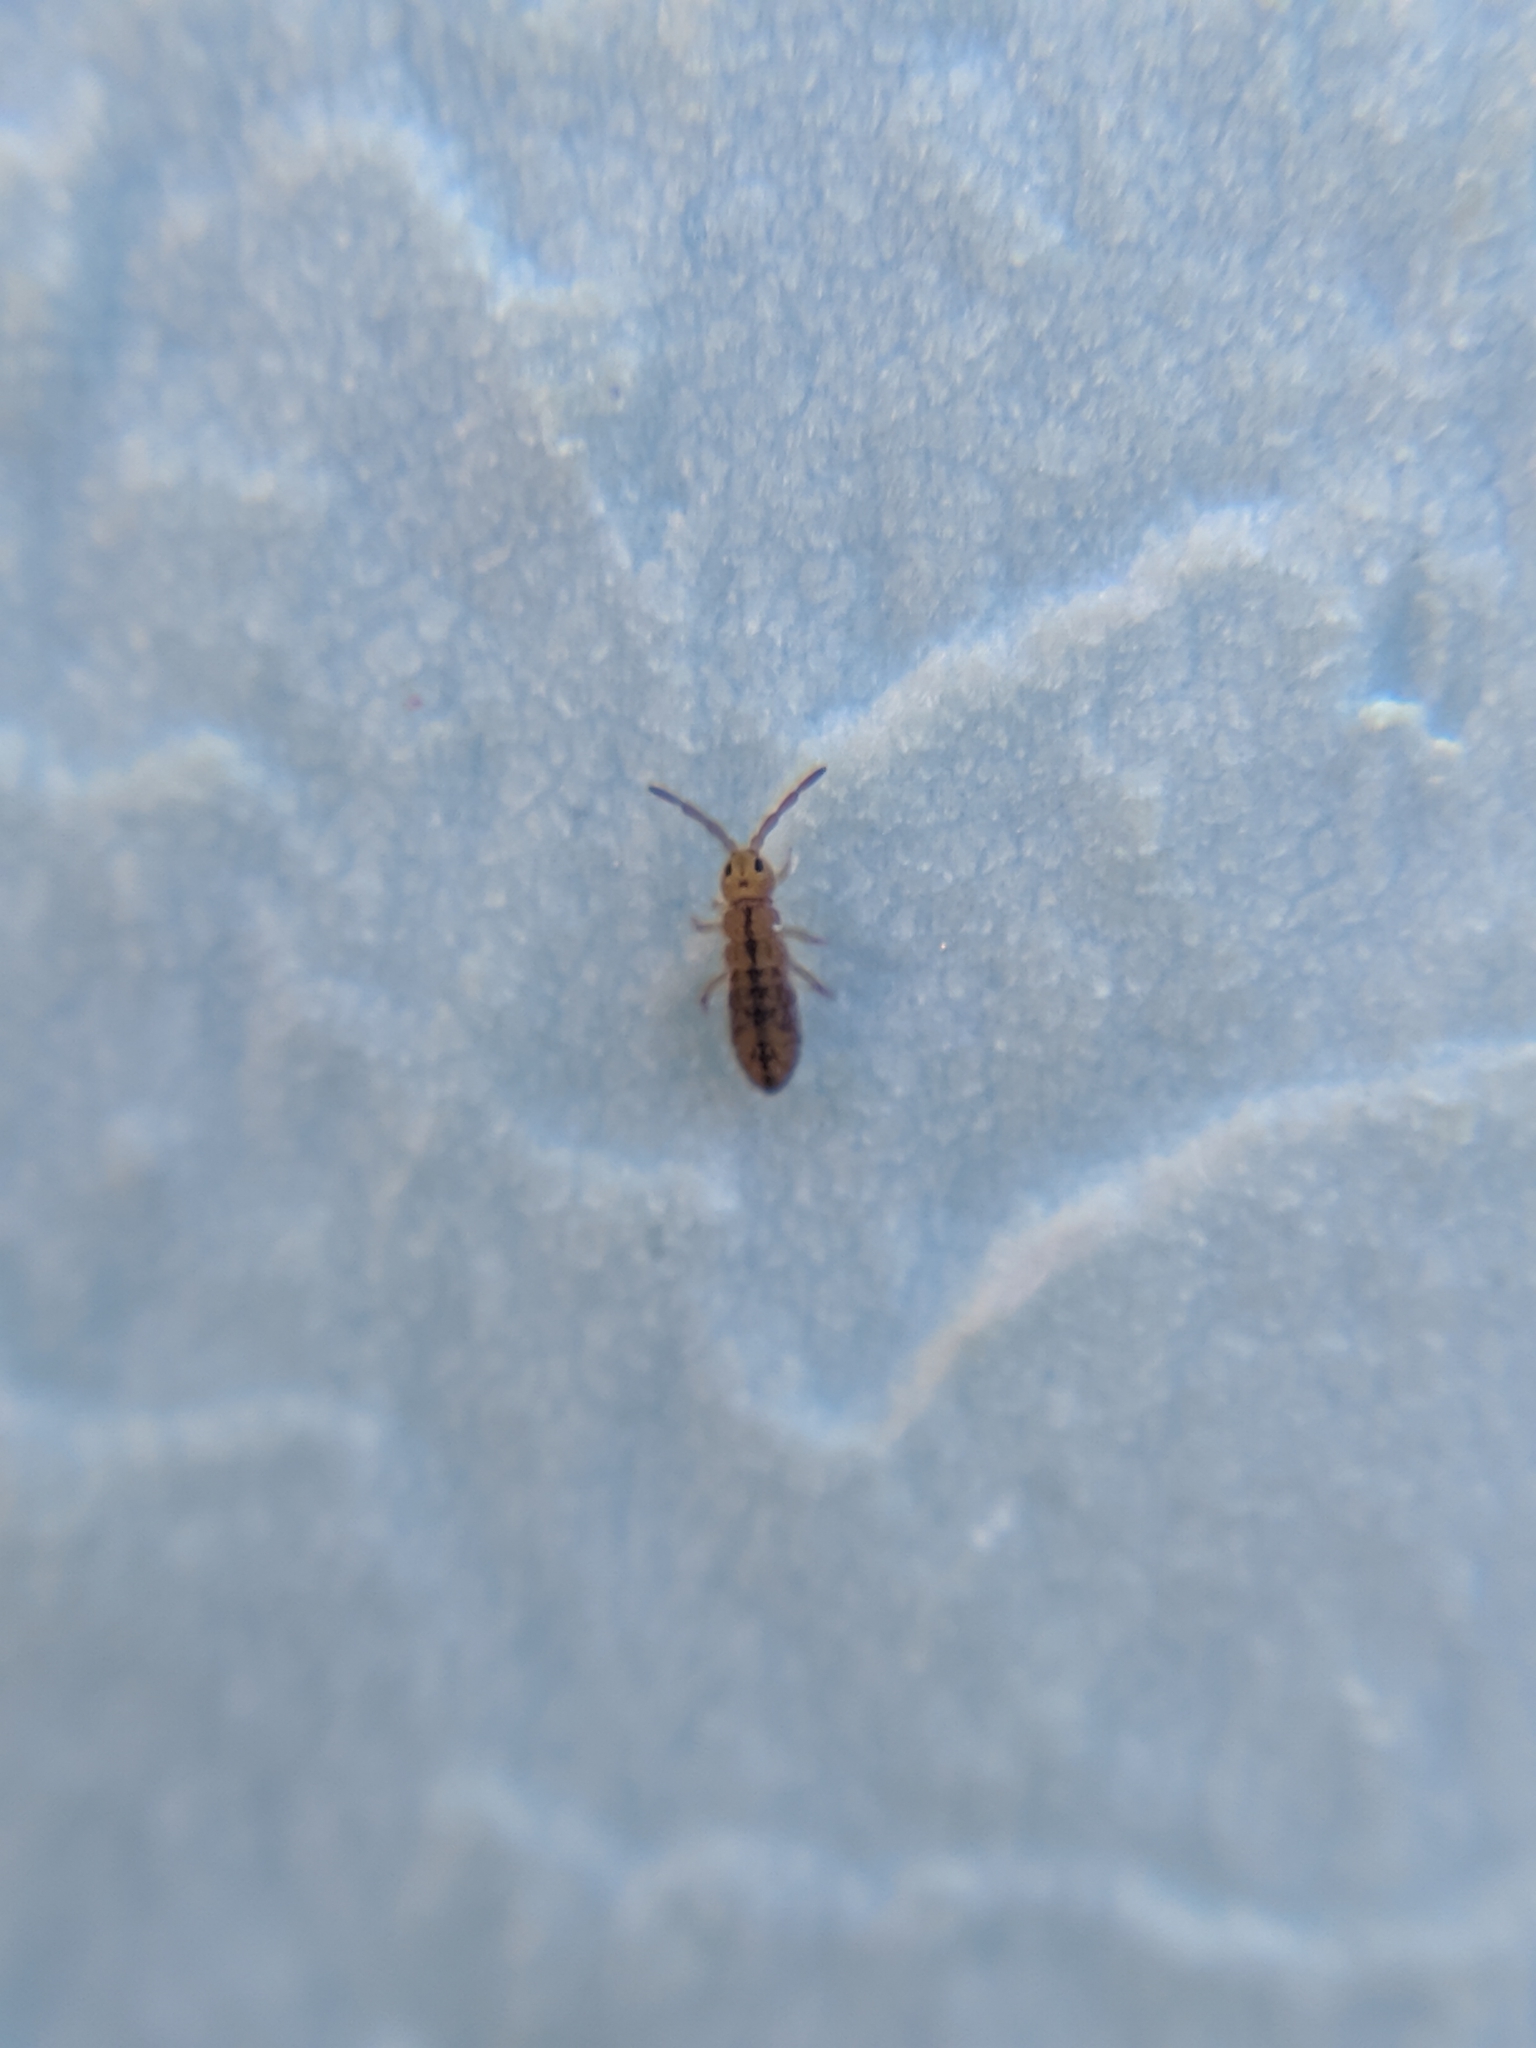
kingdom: Animalia
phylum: Arthropoda
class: Collembola
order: Entomobryomorpha
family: Isotomidae
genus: Isotomurus
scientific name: Isotomurus pseudopalustris
